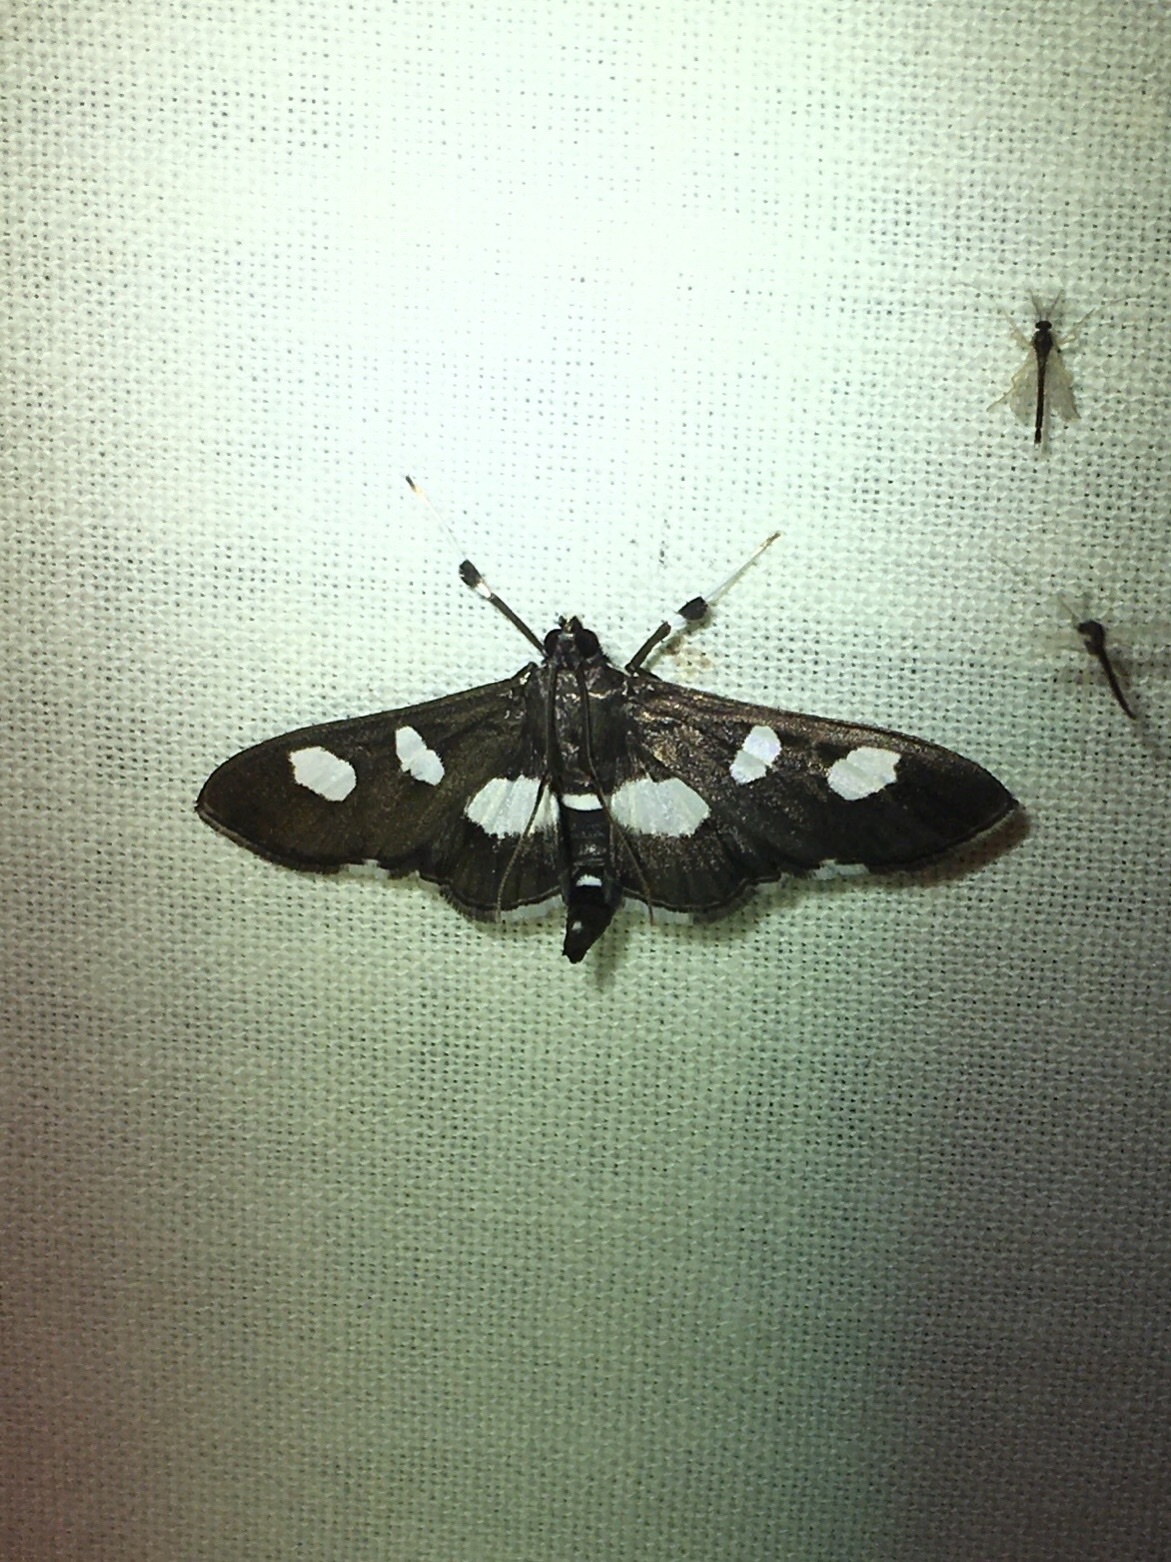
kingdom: Animalia
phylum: Arthropoda
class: Insecta
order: Lepidoptera
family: Crambidae
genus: Desmia
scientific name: Desmia
